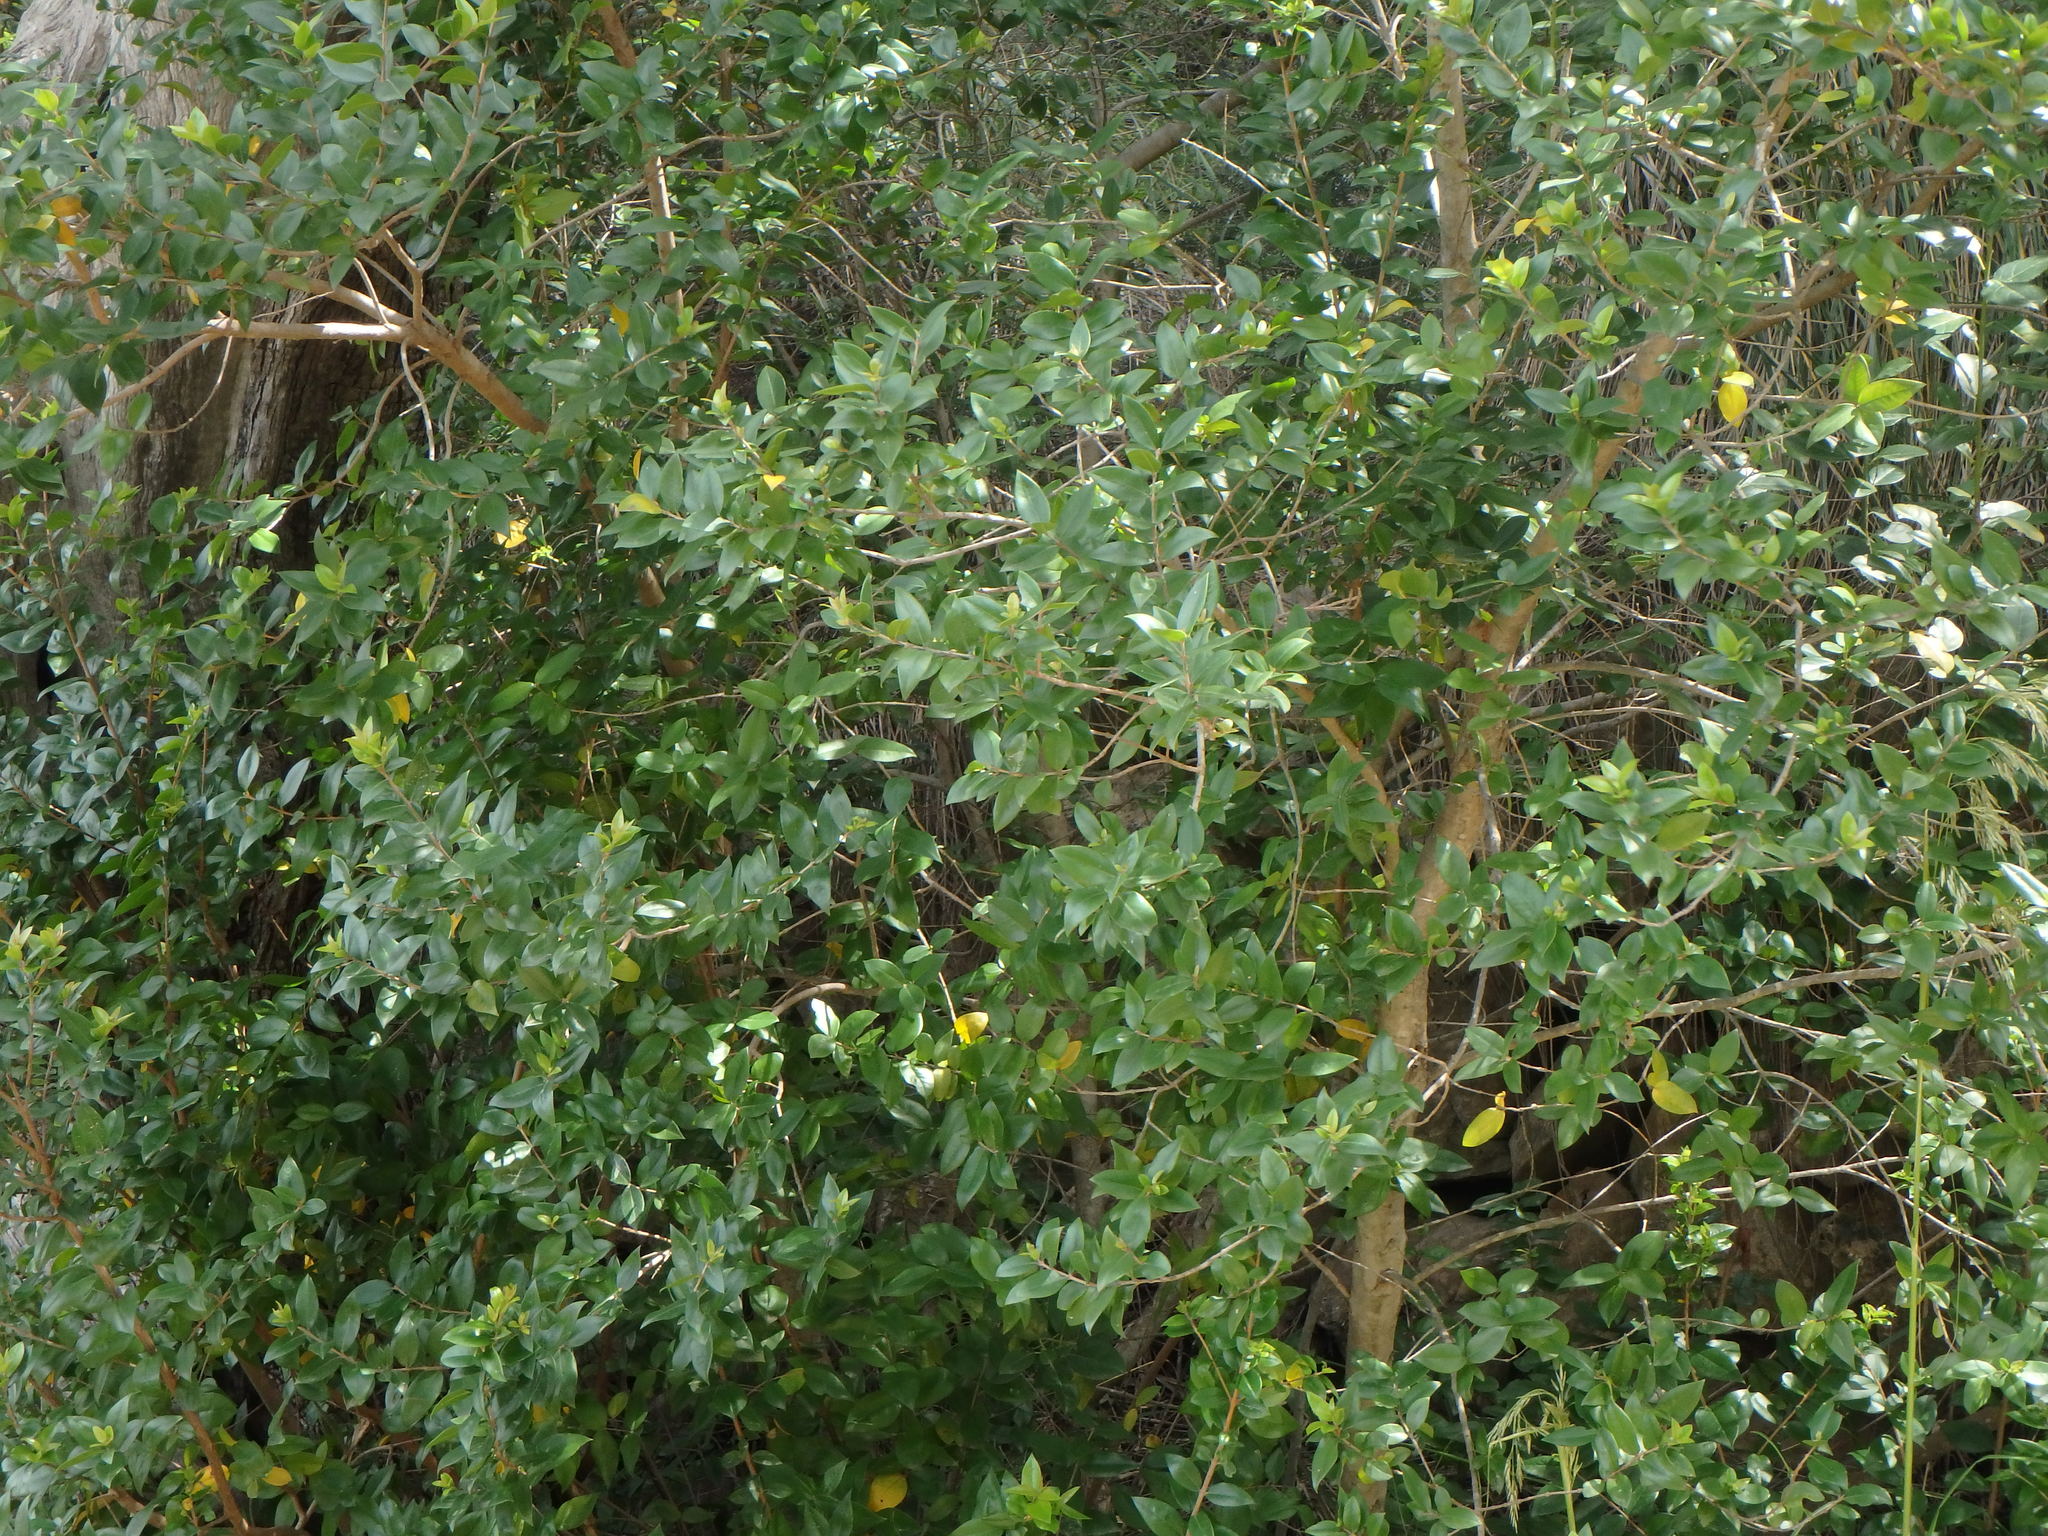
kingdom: Plantae
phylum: Tracheophyta
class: Magnoliopsida
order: Myrtales
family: Myrtaceae
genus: Myrtus
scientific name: Myrtus communis
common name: Myrtle
